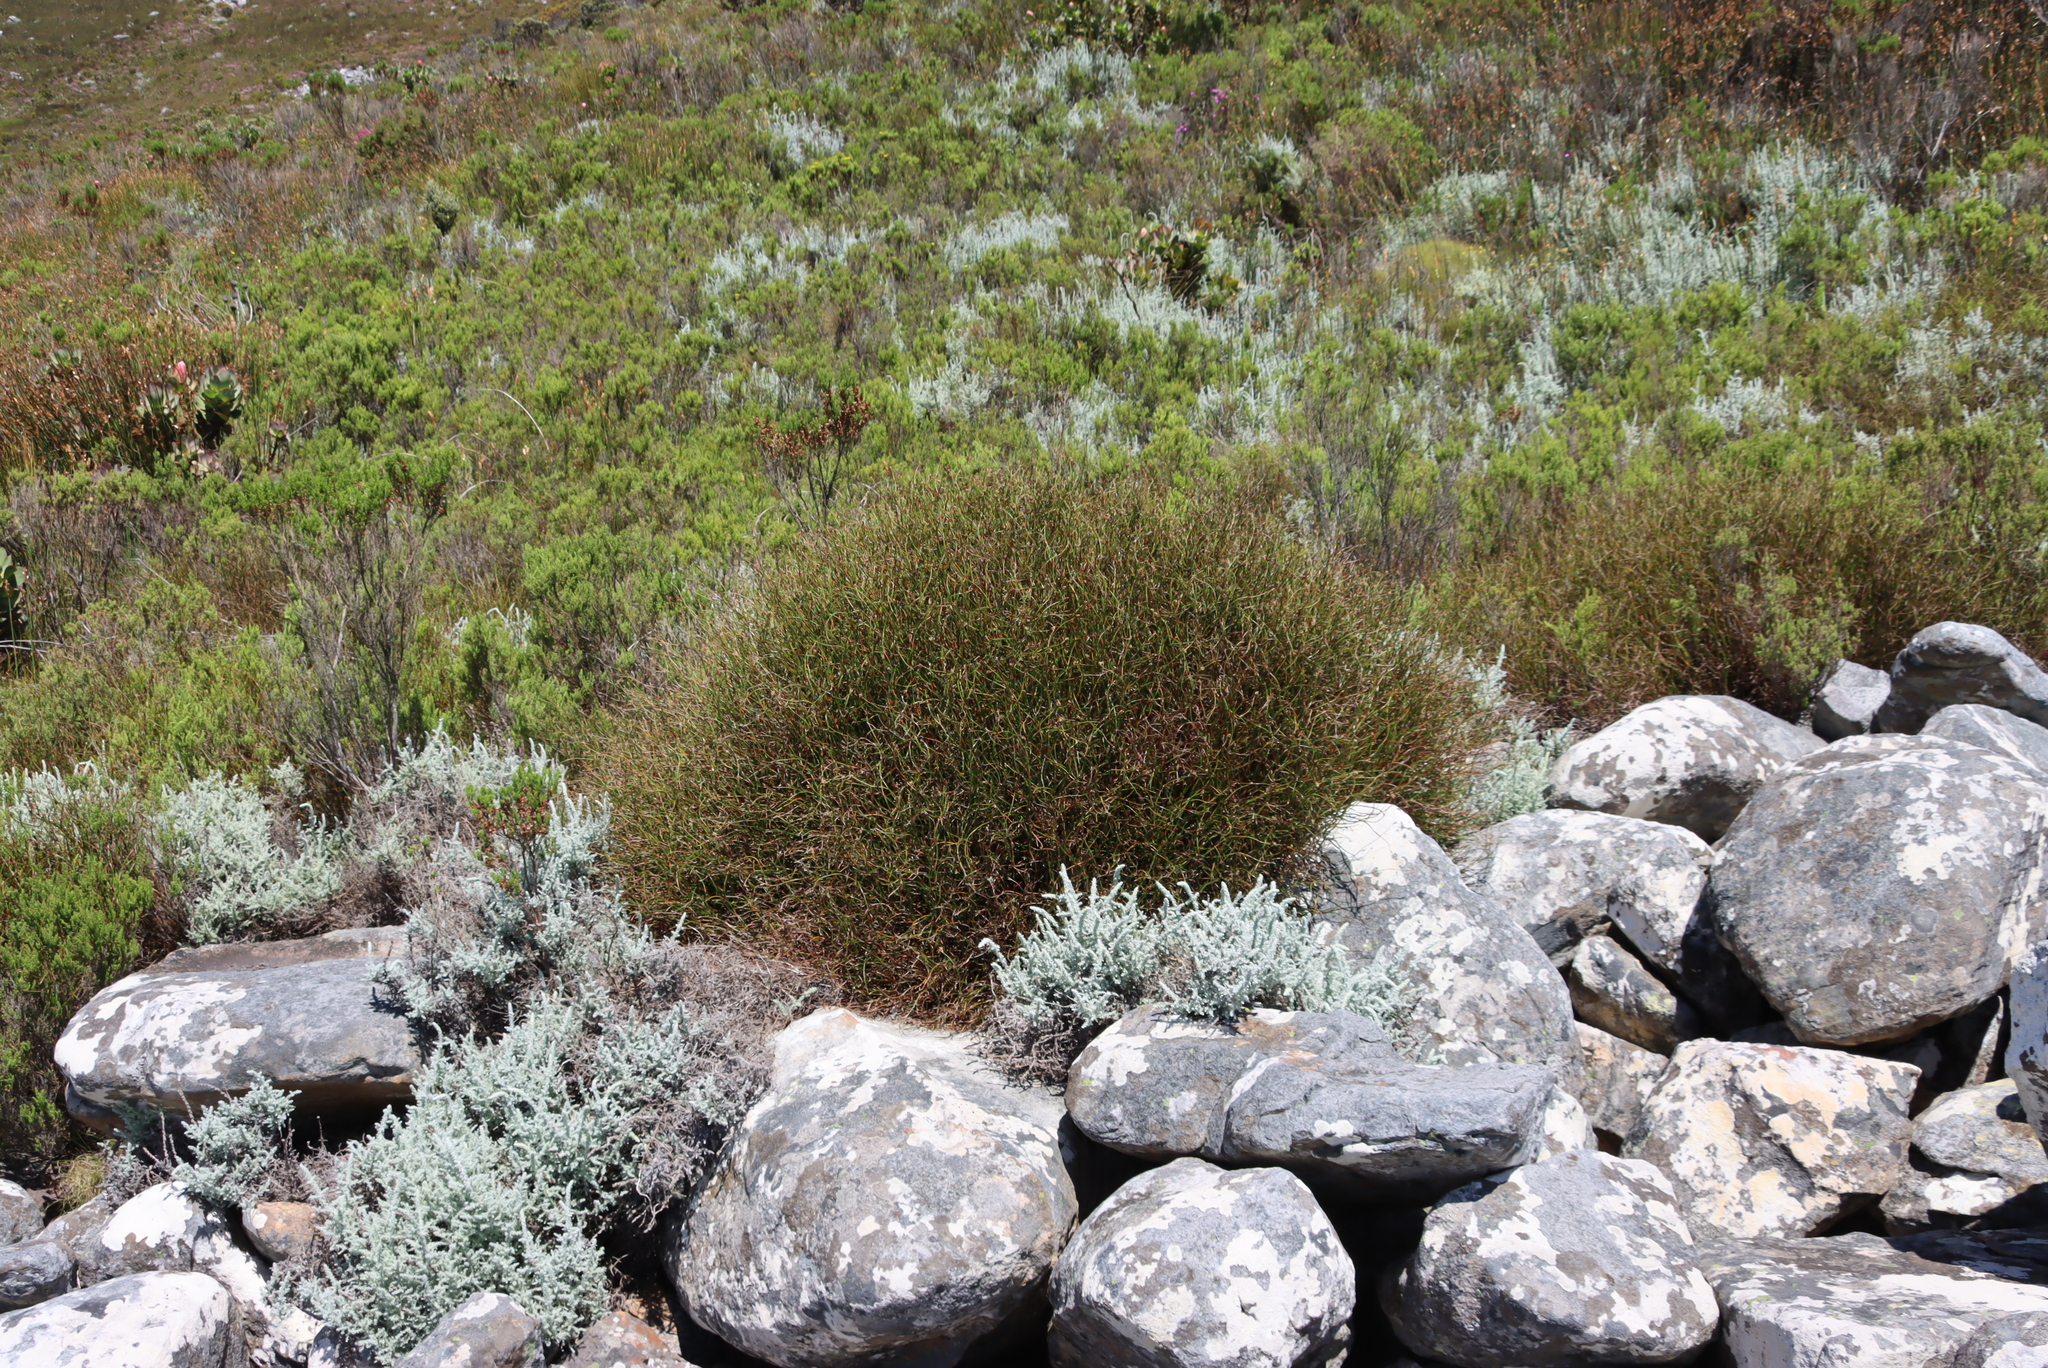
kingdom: Plantae
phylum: Tracheophyta
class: Magnoliopsida
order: Asterales
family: Asteraceae
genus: Seriphium
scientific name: Seriphium plumosum
